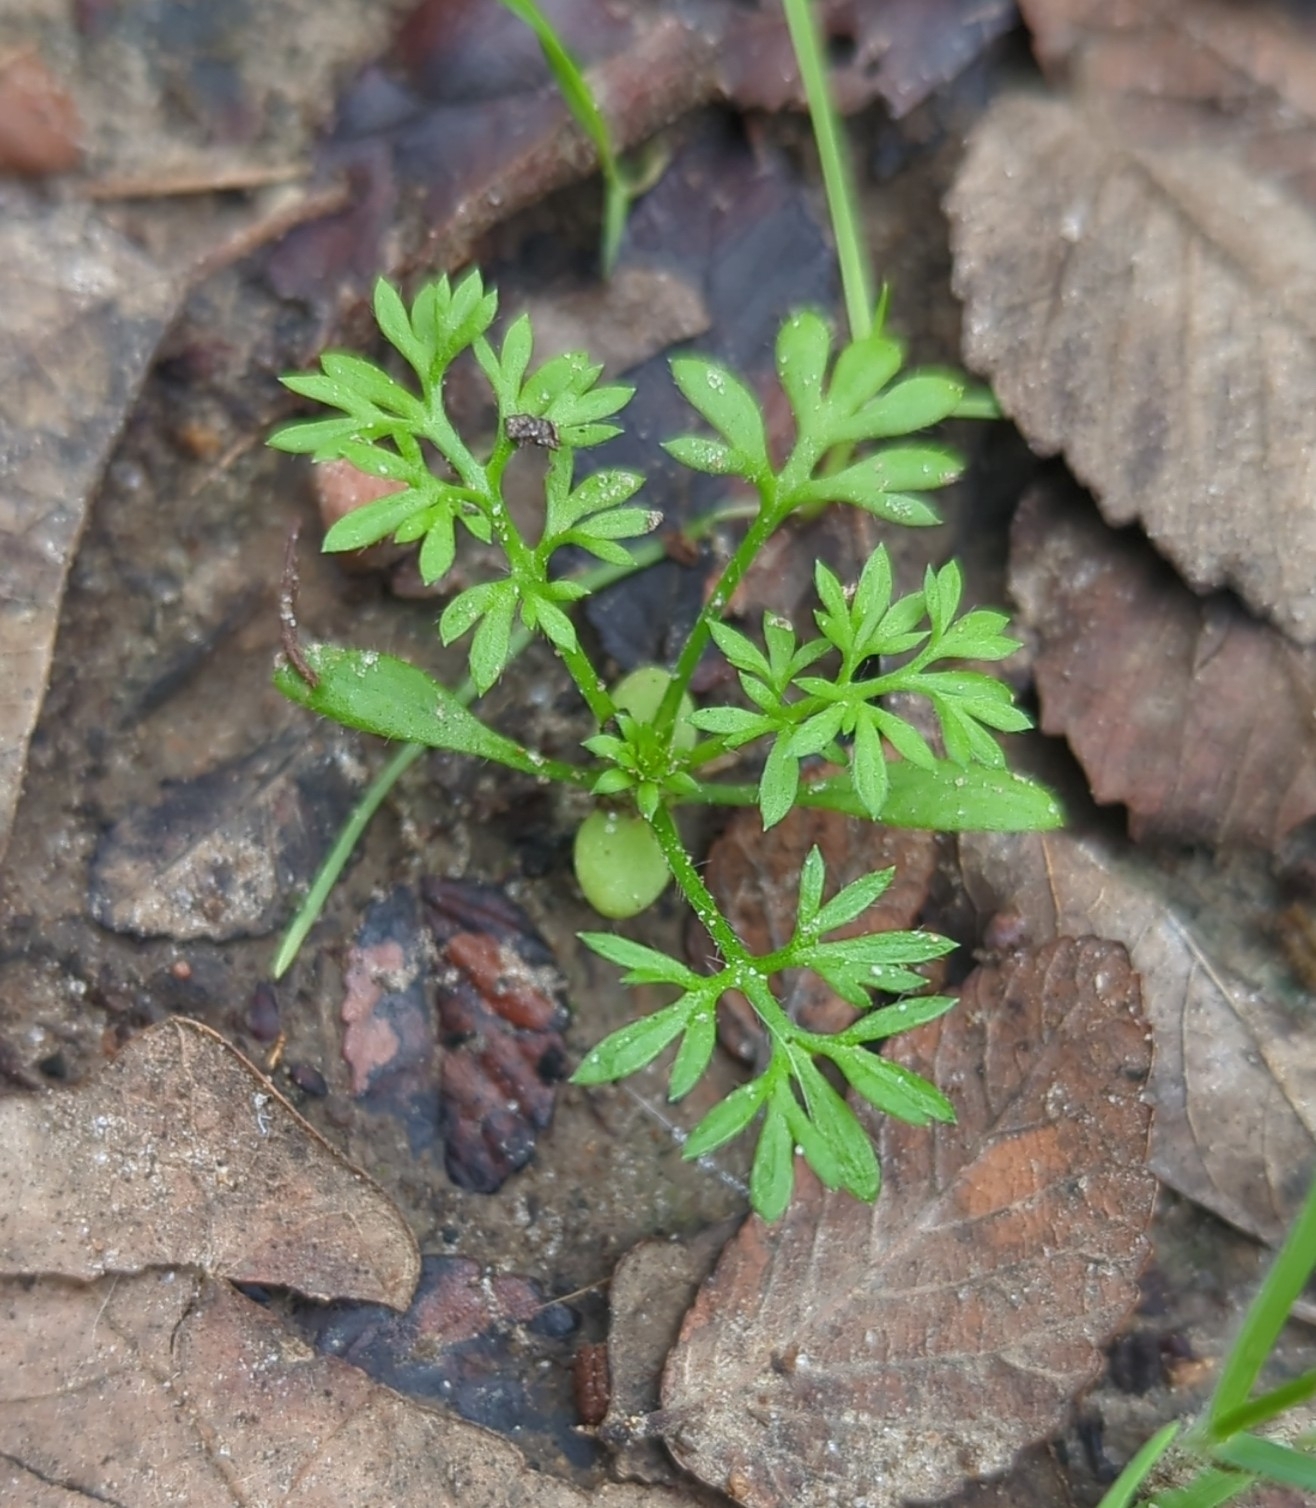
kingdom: Plantae
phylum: Tracheophyta
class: Magnoliopsida
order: Asterales
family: Asteraceae
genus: Soliva
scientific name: Soliva sessilis
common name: Field burrweed
